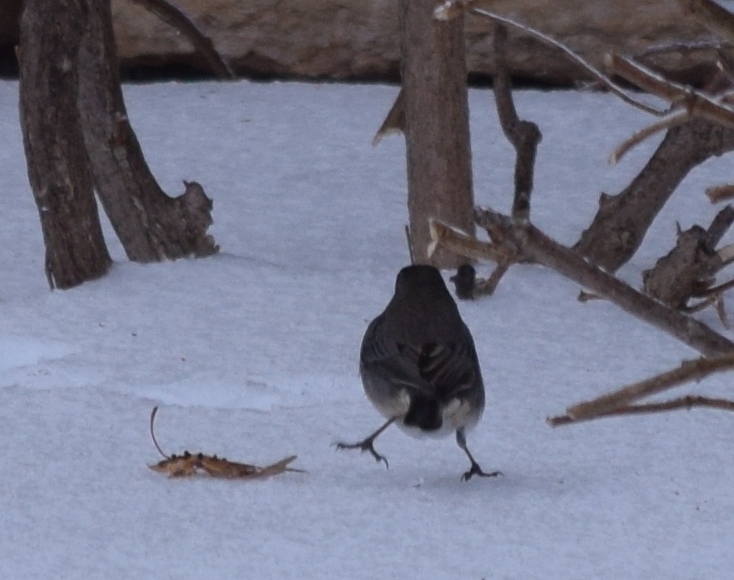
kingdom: Animalia
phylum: Chordata
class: Aves
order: Passeriformes
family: Passerellidae
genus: Junco
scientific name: Junco hyemalis
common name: Dark-eyed junco
